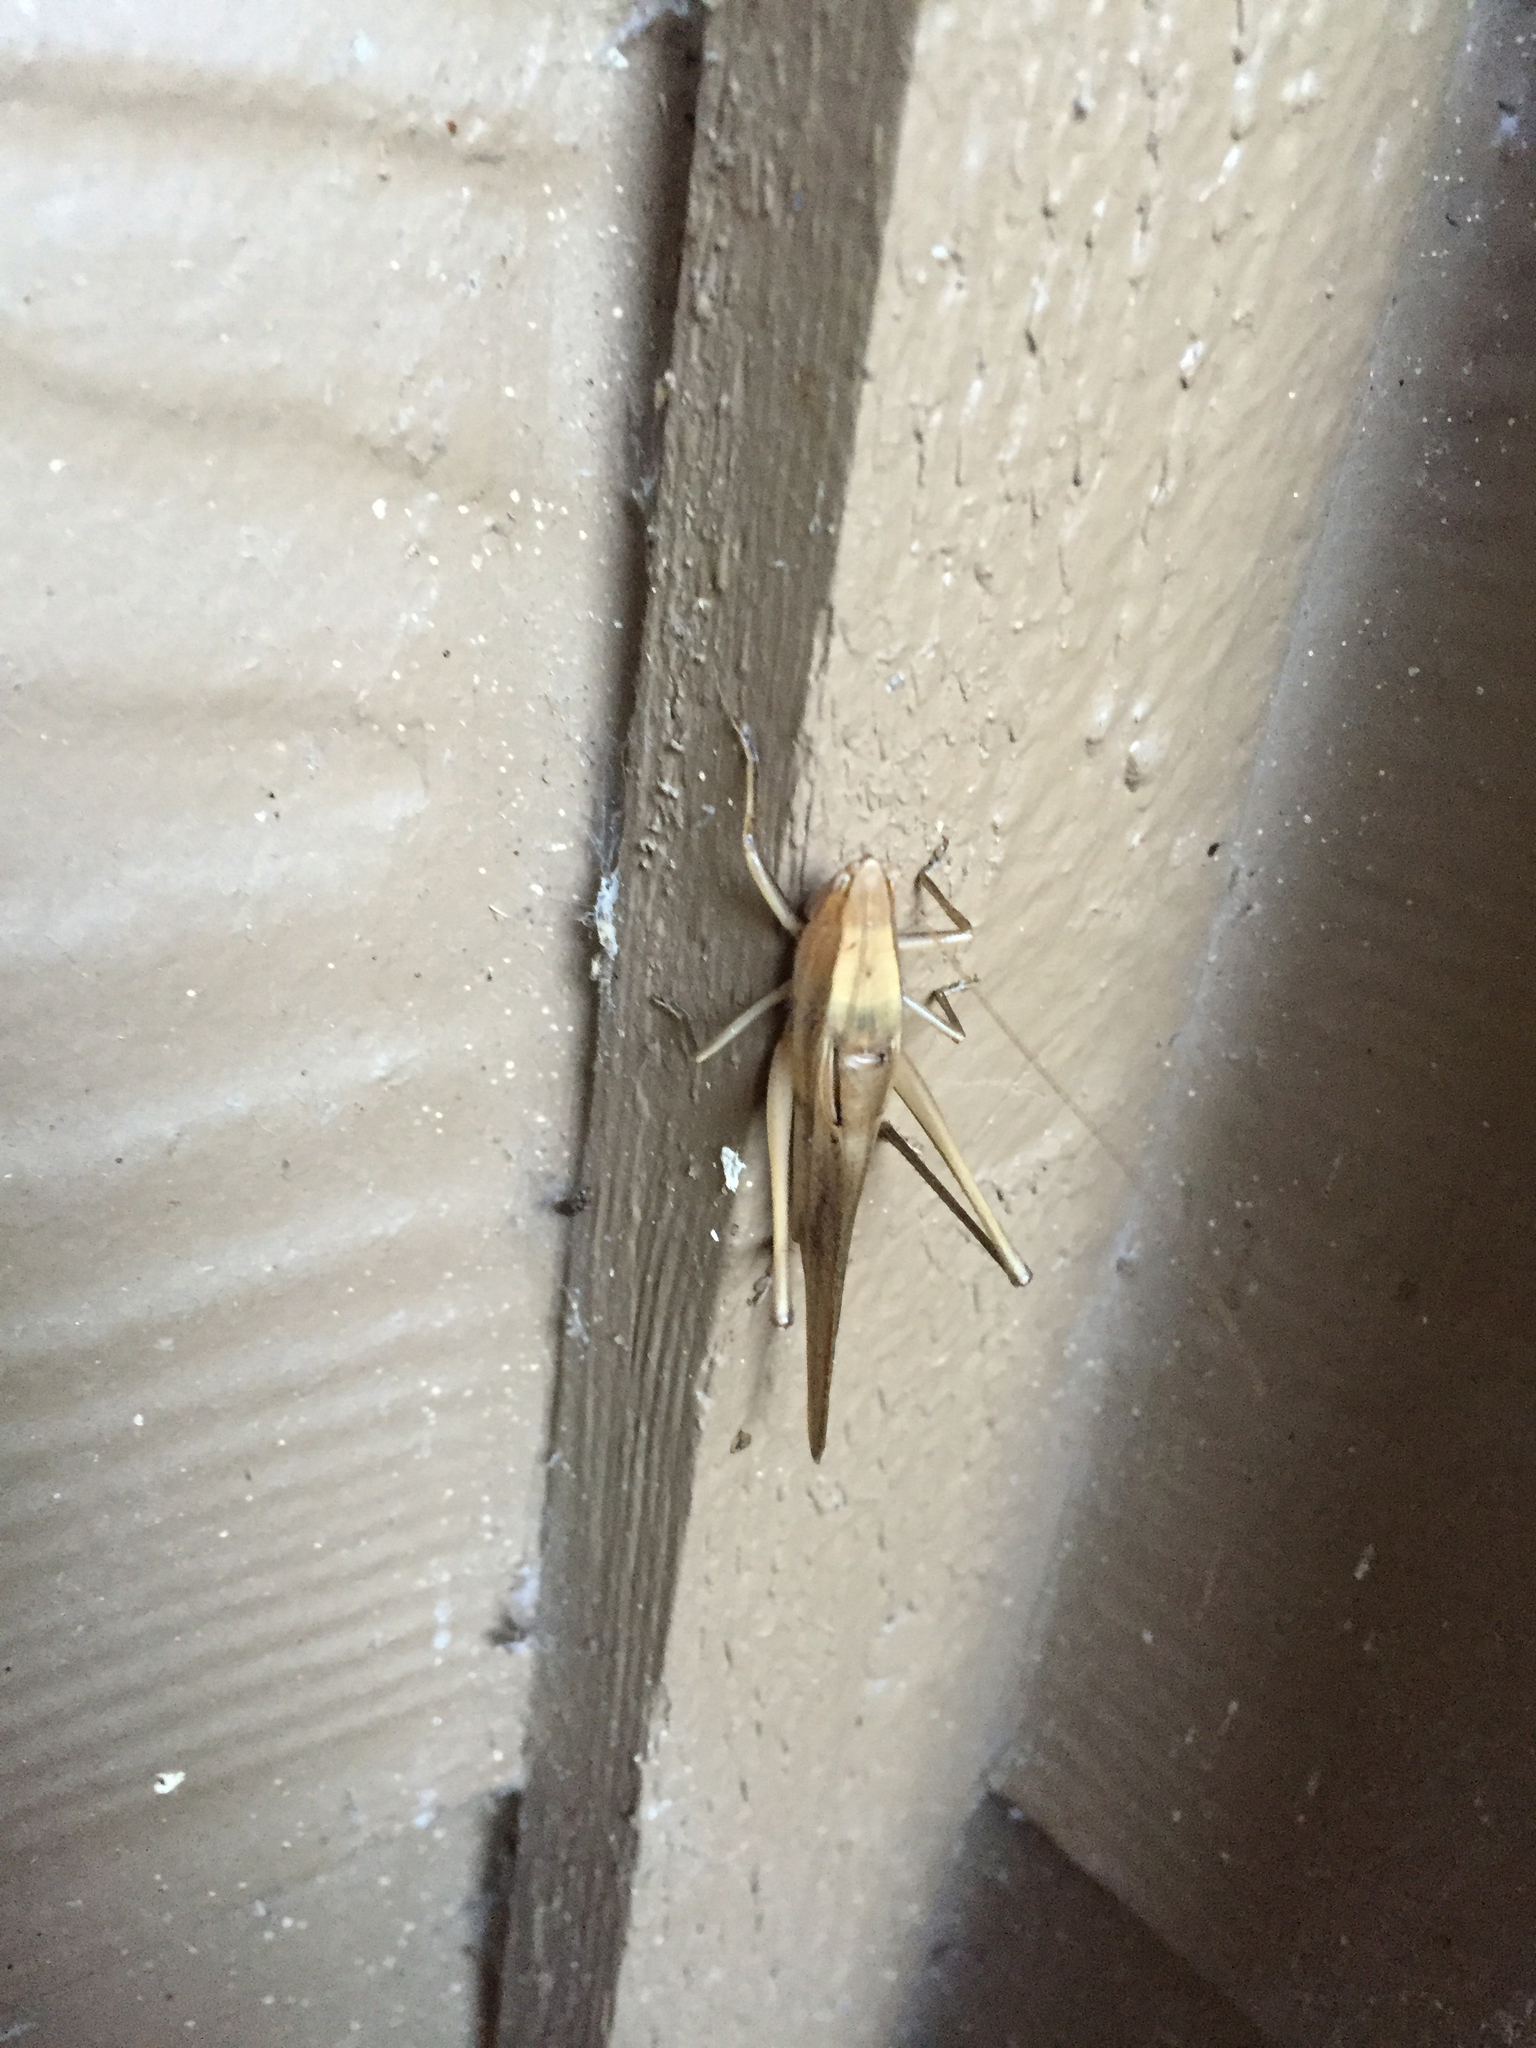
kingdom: Animalia
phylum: Arthropoda
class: Insecta
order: Orthoptera
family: Tettigoniidae
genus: Neoconocephalus
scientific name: Neoconocephalus triops
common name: Broad-tipped conehead
